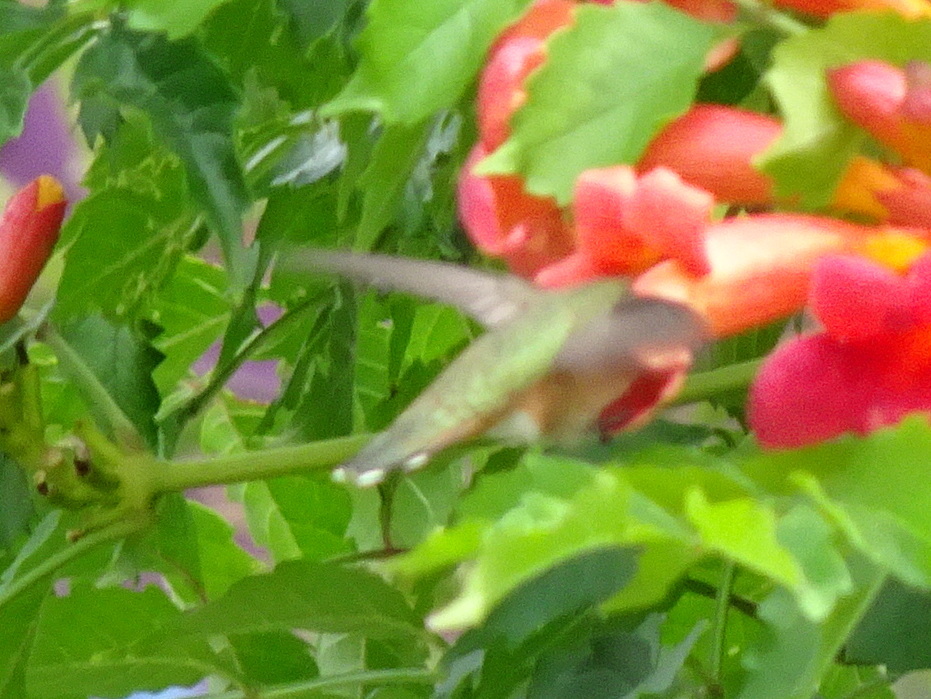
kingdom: Animalia
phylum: Chordata
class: Aves
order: Apodiformes
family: Trochilidae
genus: Selasphorus
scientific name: Selasphorus rufus
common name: Rufous hummingbird
